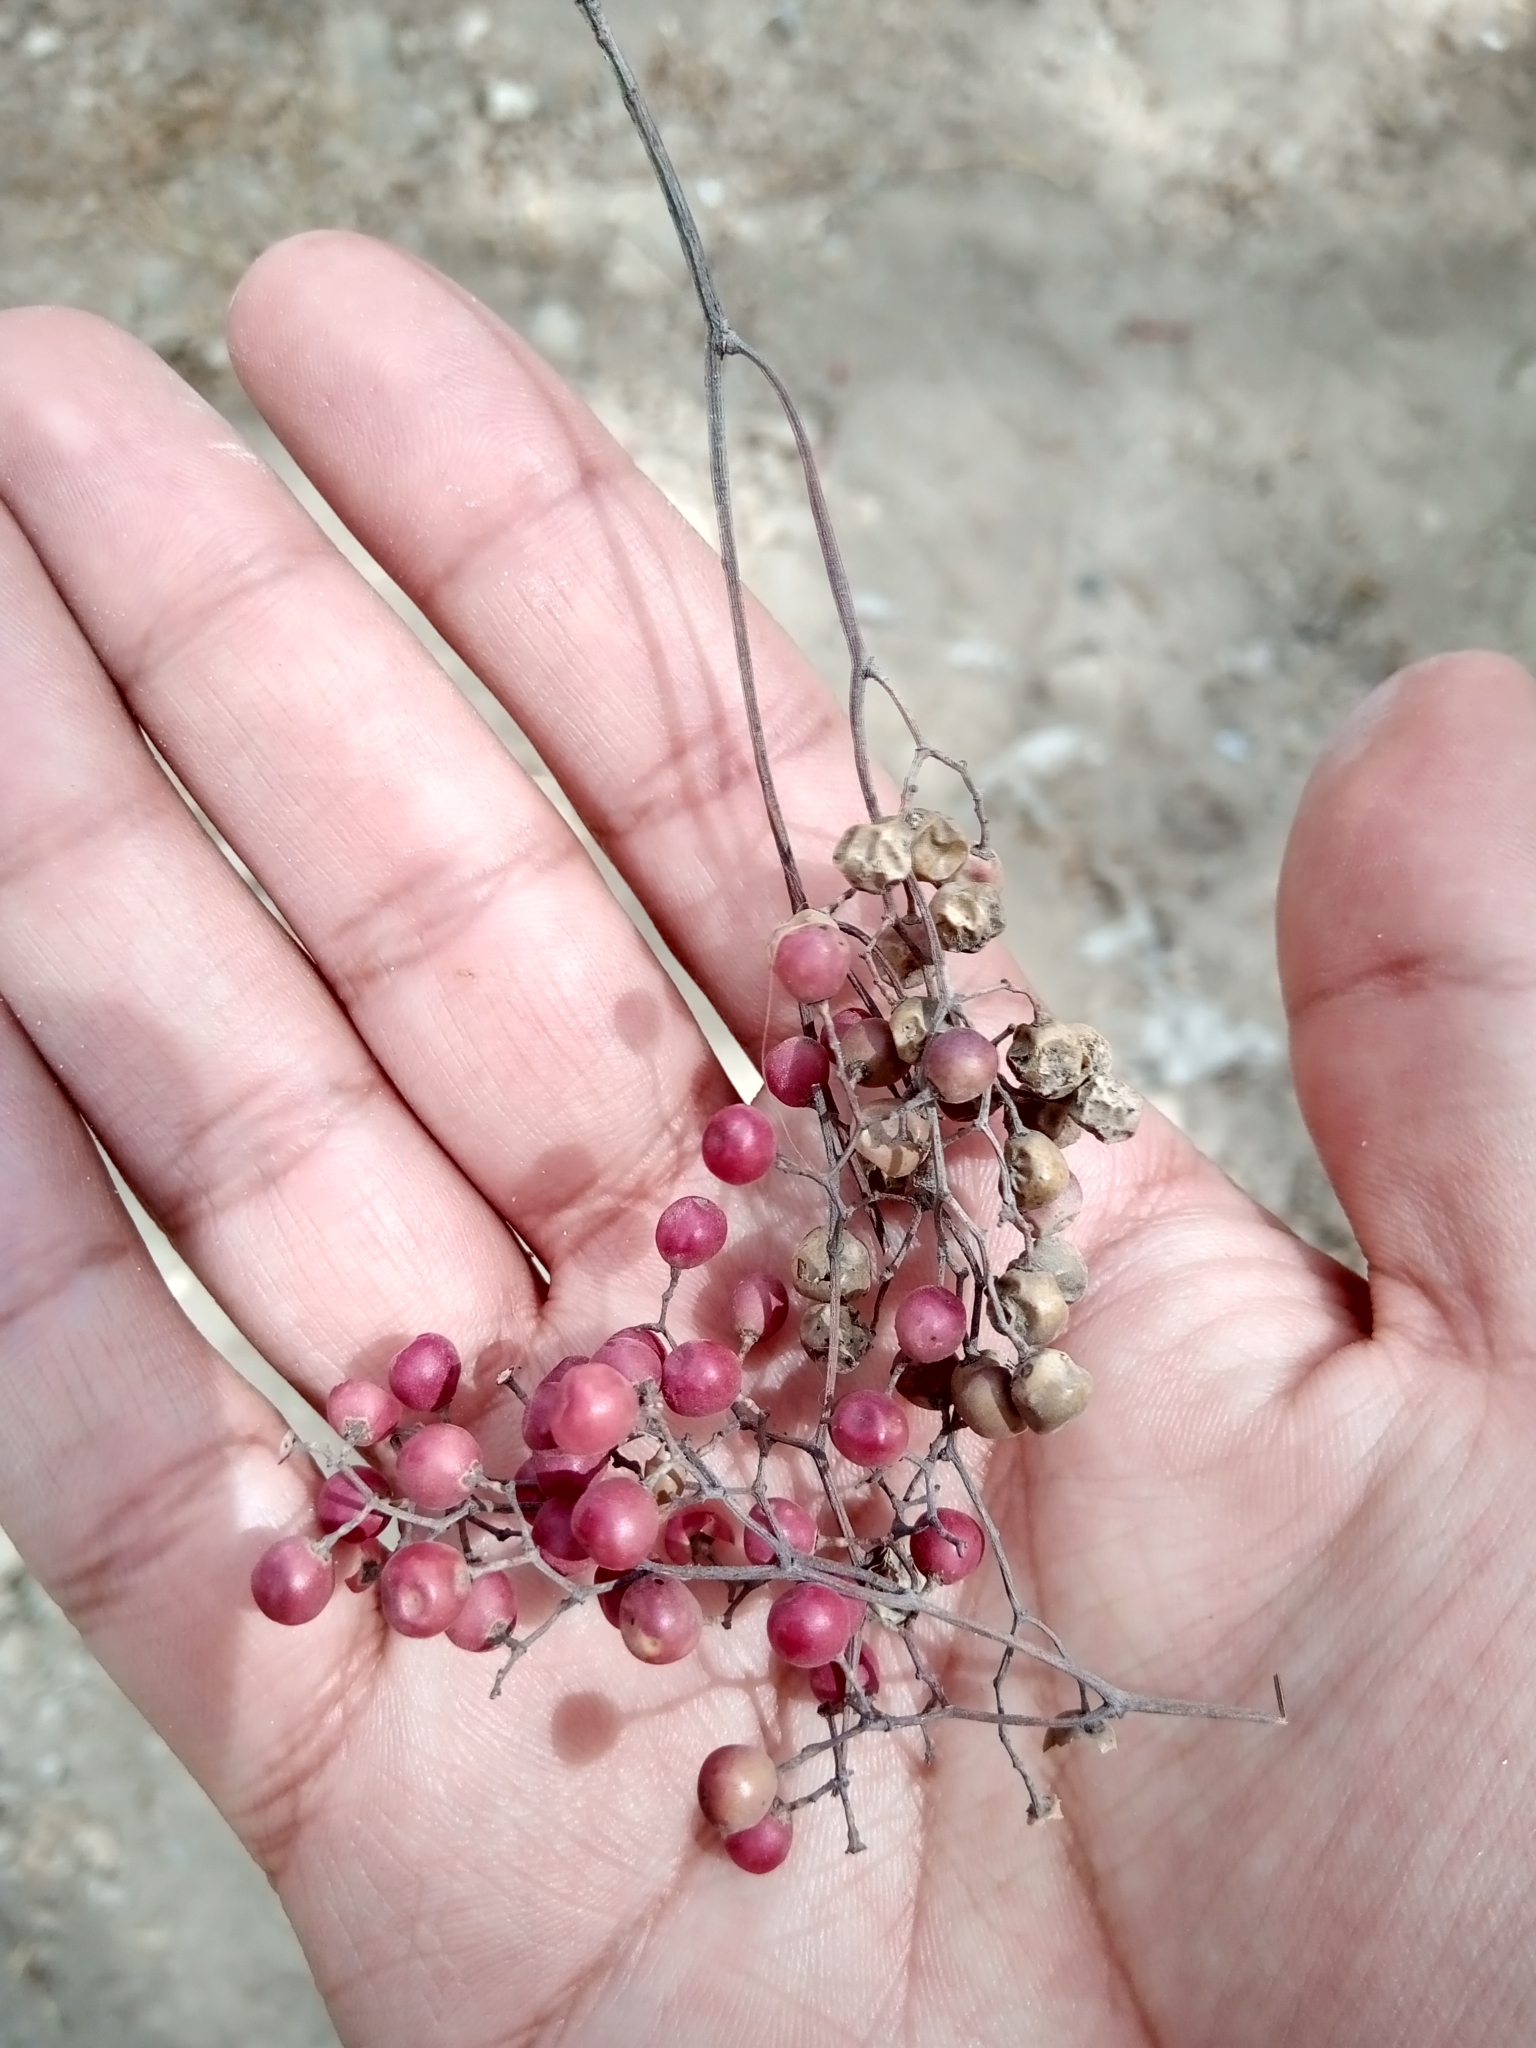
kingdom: Plantae
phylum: Tracheophyta
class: Magnoliopsida
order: Sapindales
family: Anacardiaceae
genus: Schinus
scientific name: Schinus molle
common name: Peruvian peppertree
